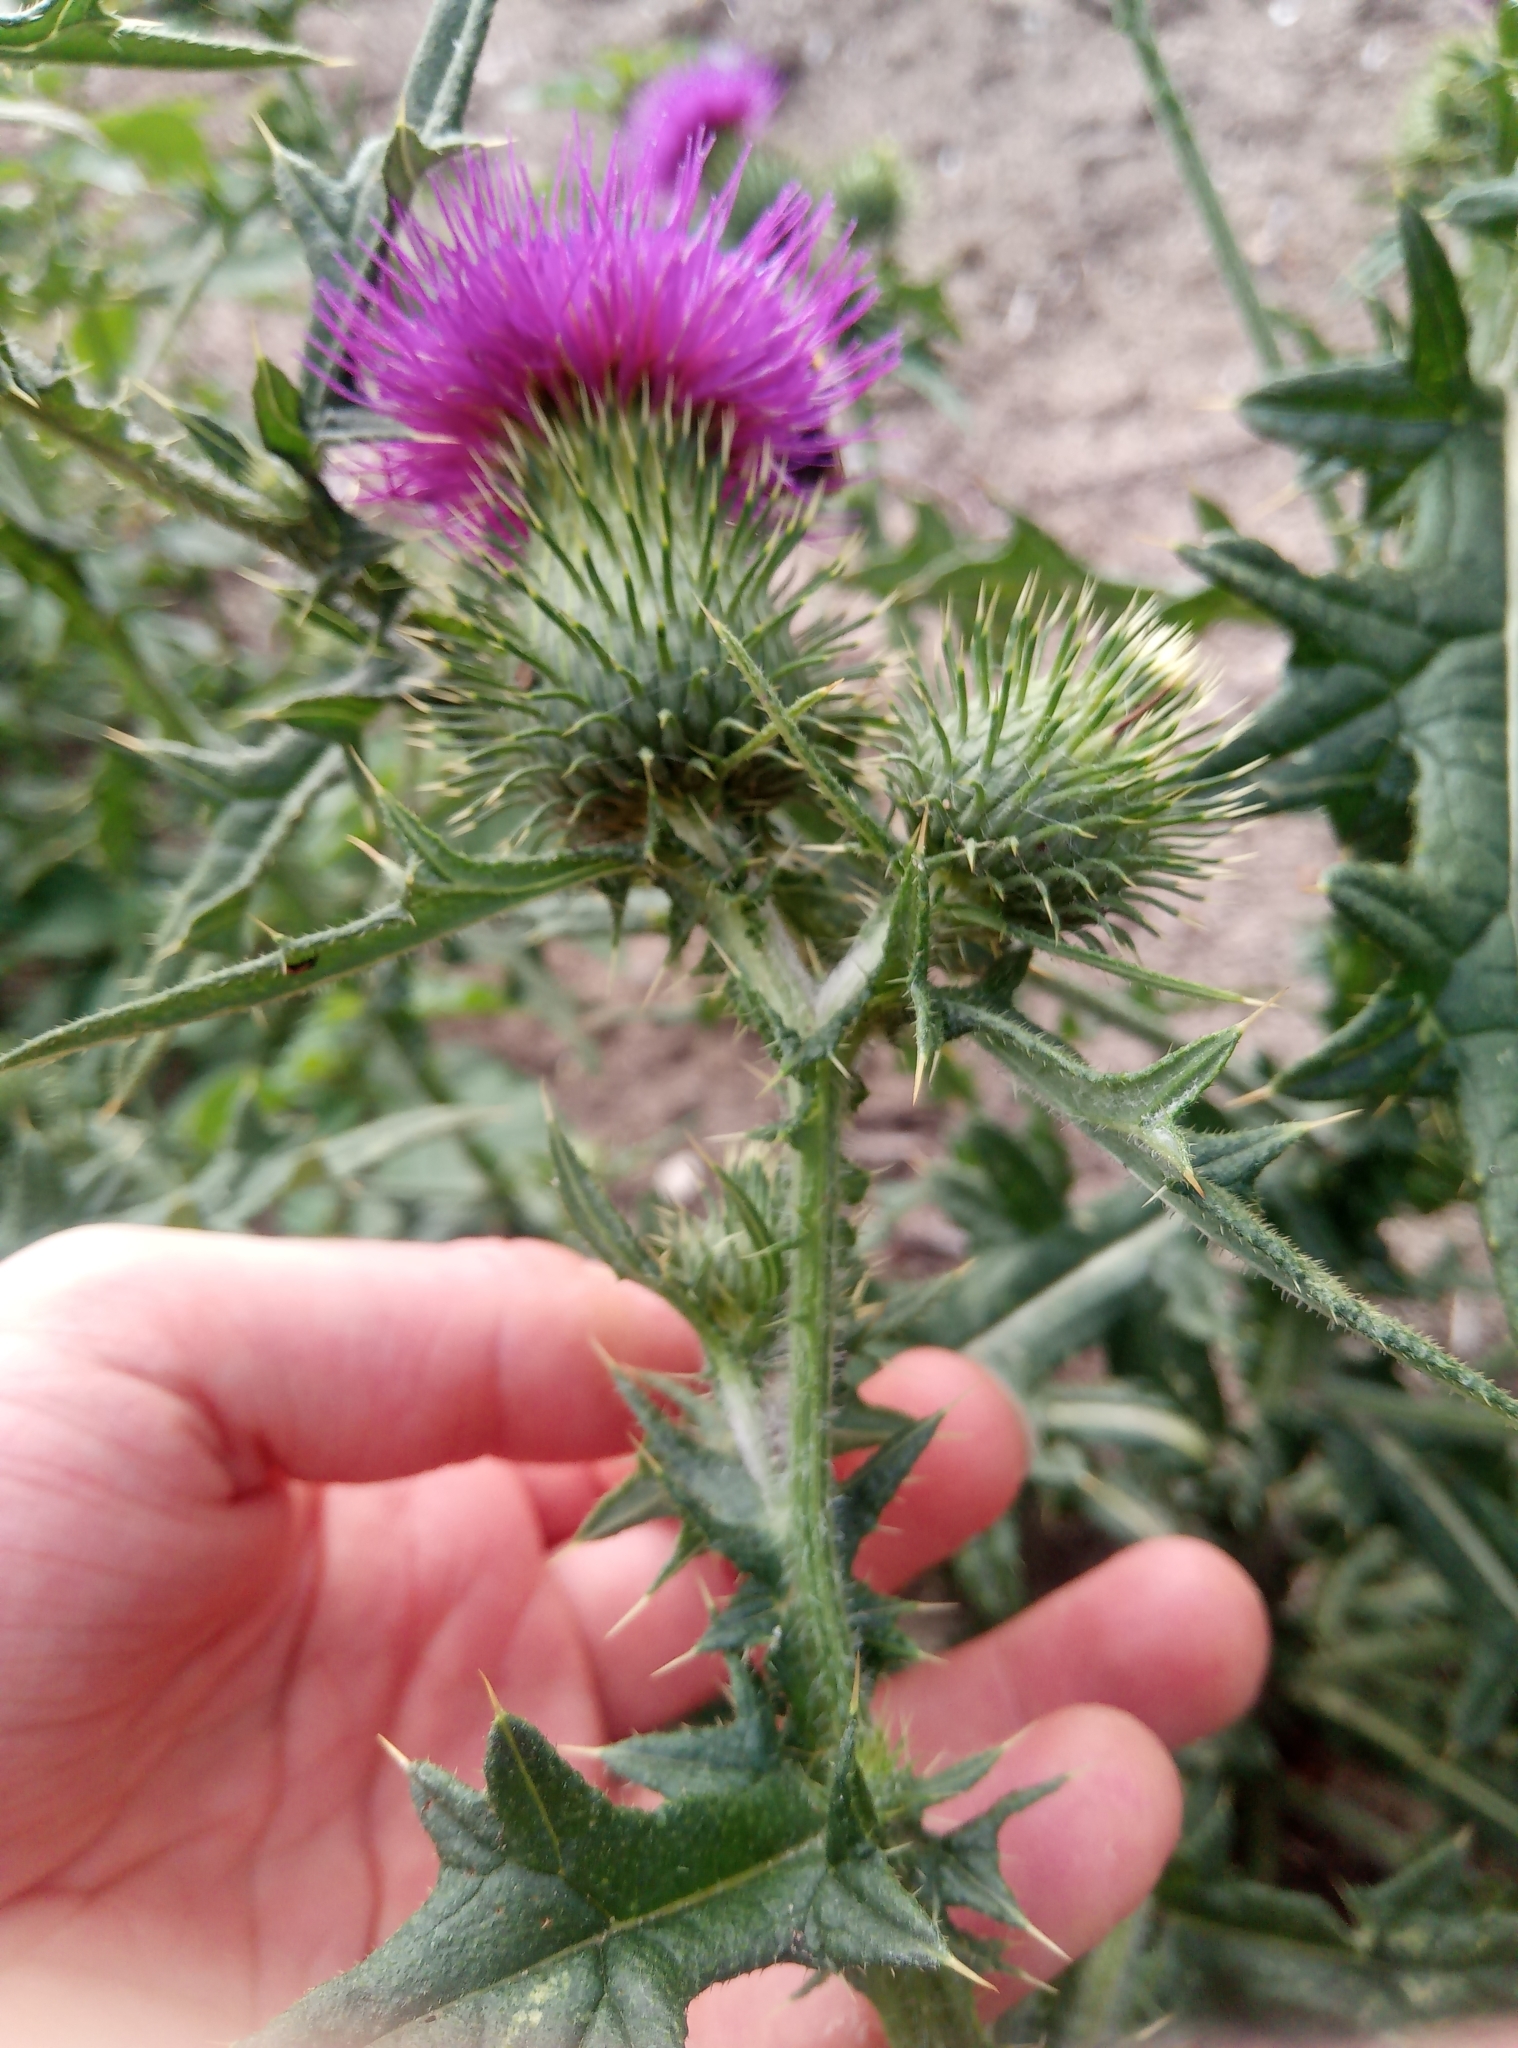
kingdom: Plantae
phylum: Tracheophyta
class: Magnoliopsida
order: Asterales
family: Asteraceae
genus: Cirsium
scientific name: Cirsium vulgare
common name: Bull thistle
